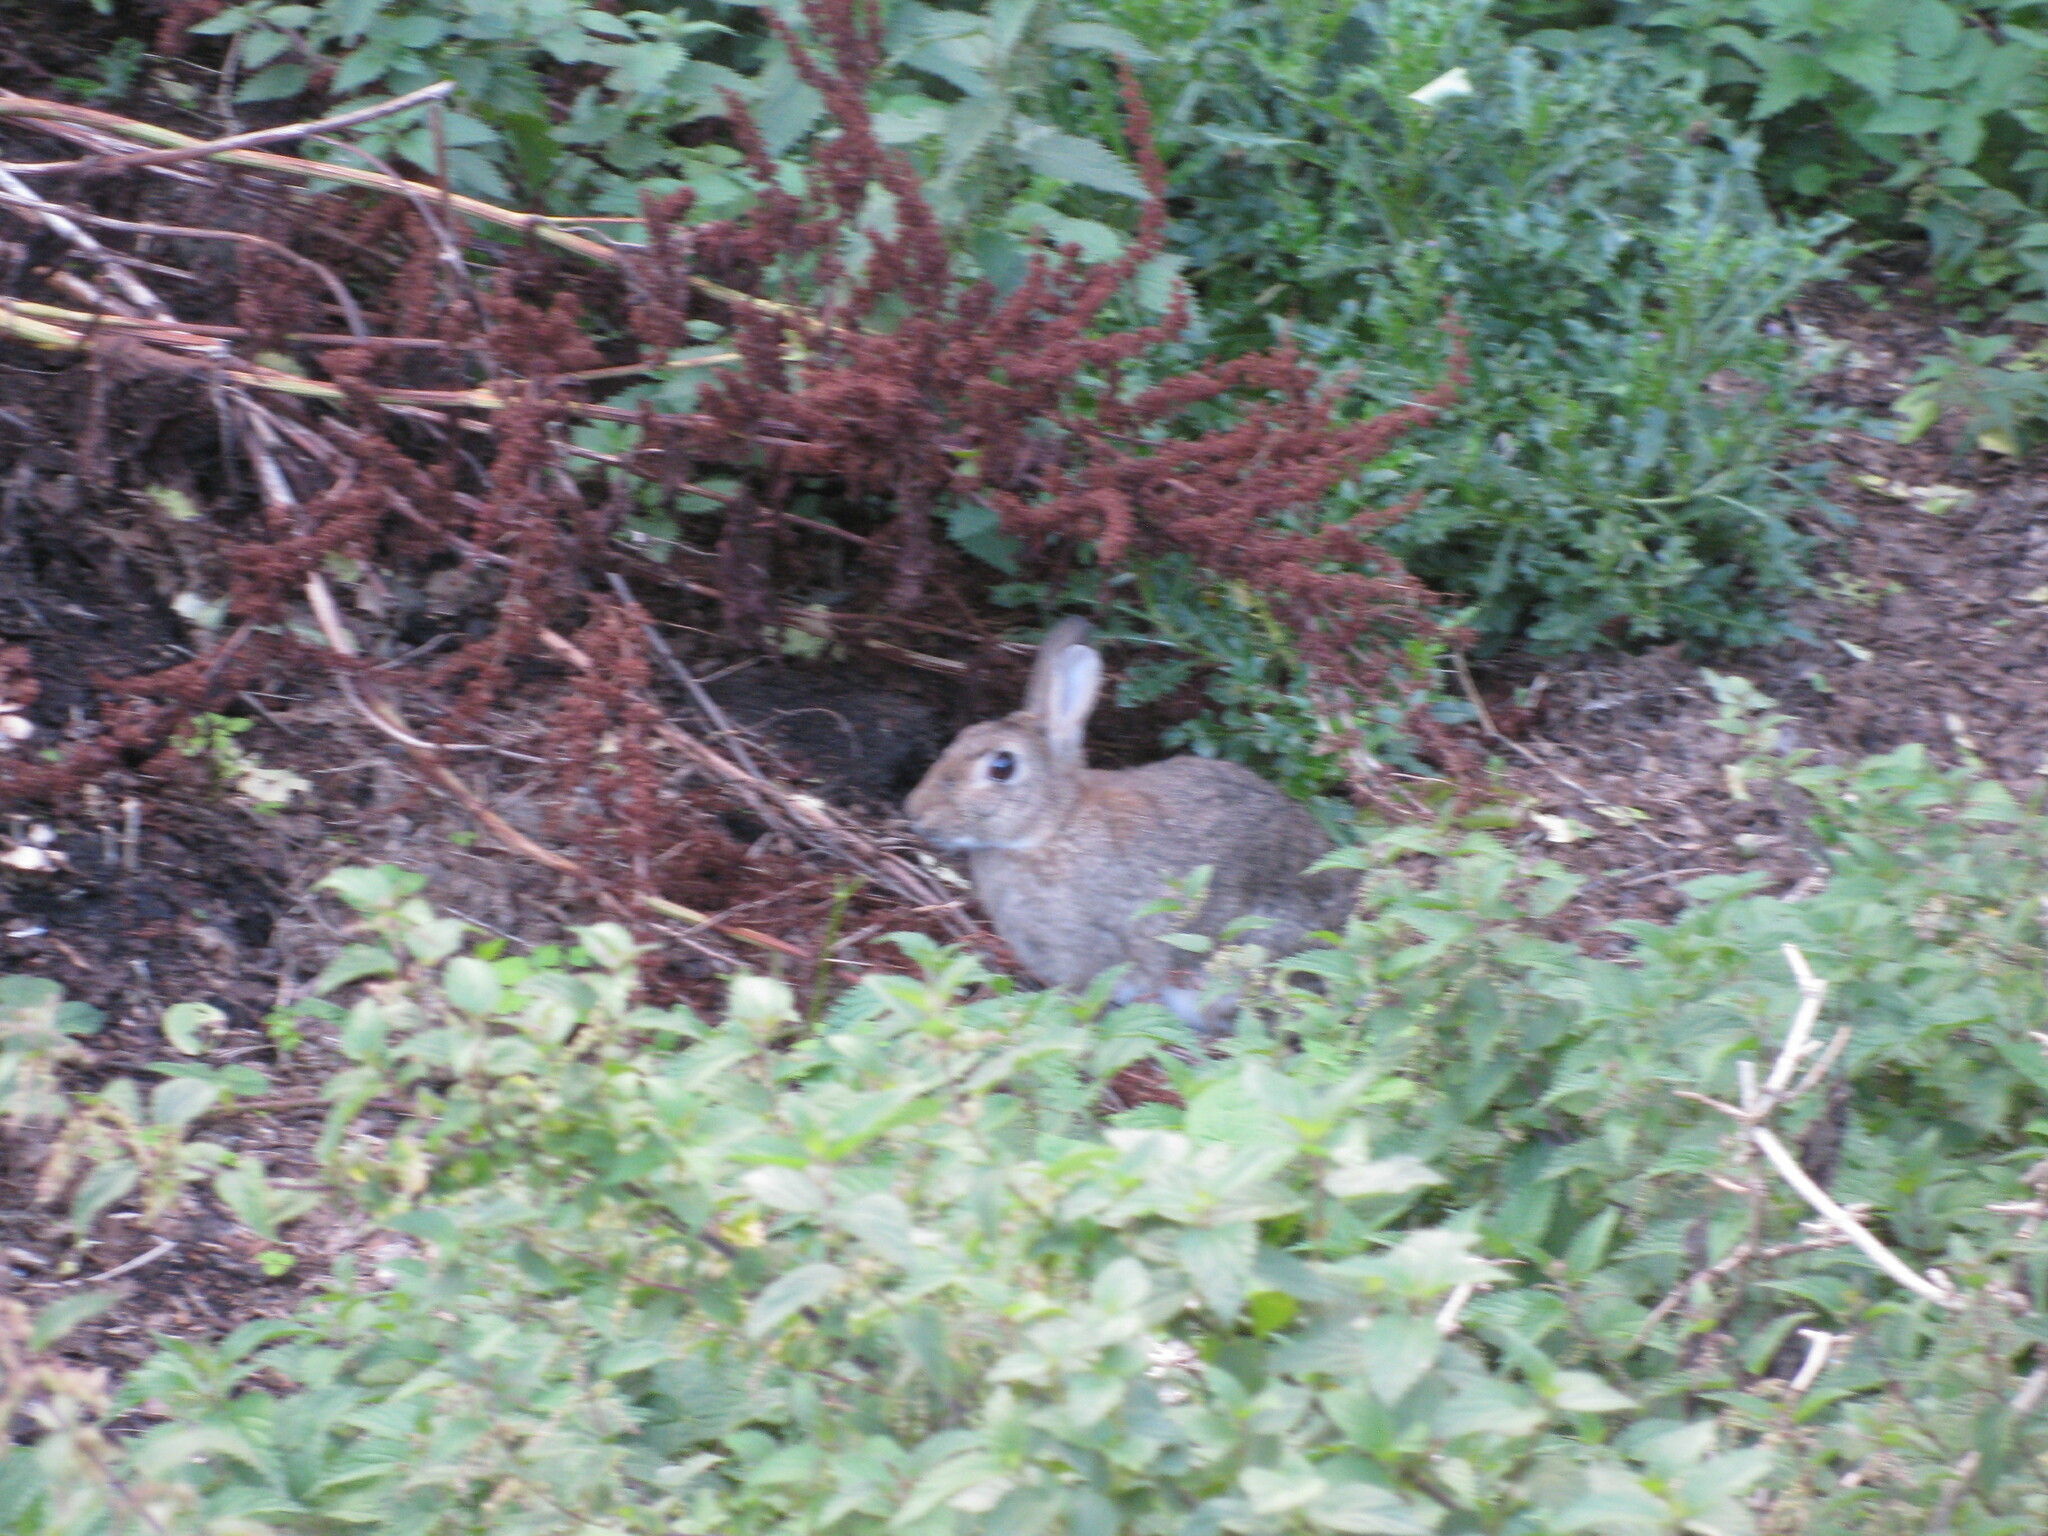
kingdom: Animalia
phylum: Chordata
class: Mammalia
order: Lagomorpha
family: Leporidae
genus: Oryctolagus
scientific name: Oryctolagus cuniculus
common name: European rabbit
